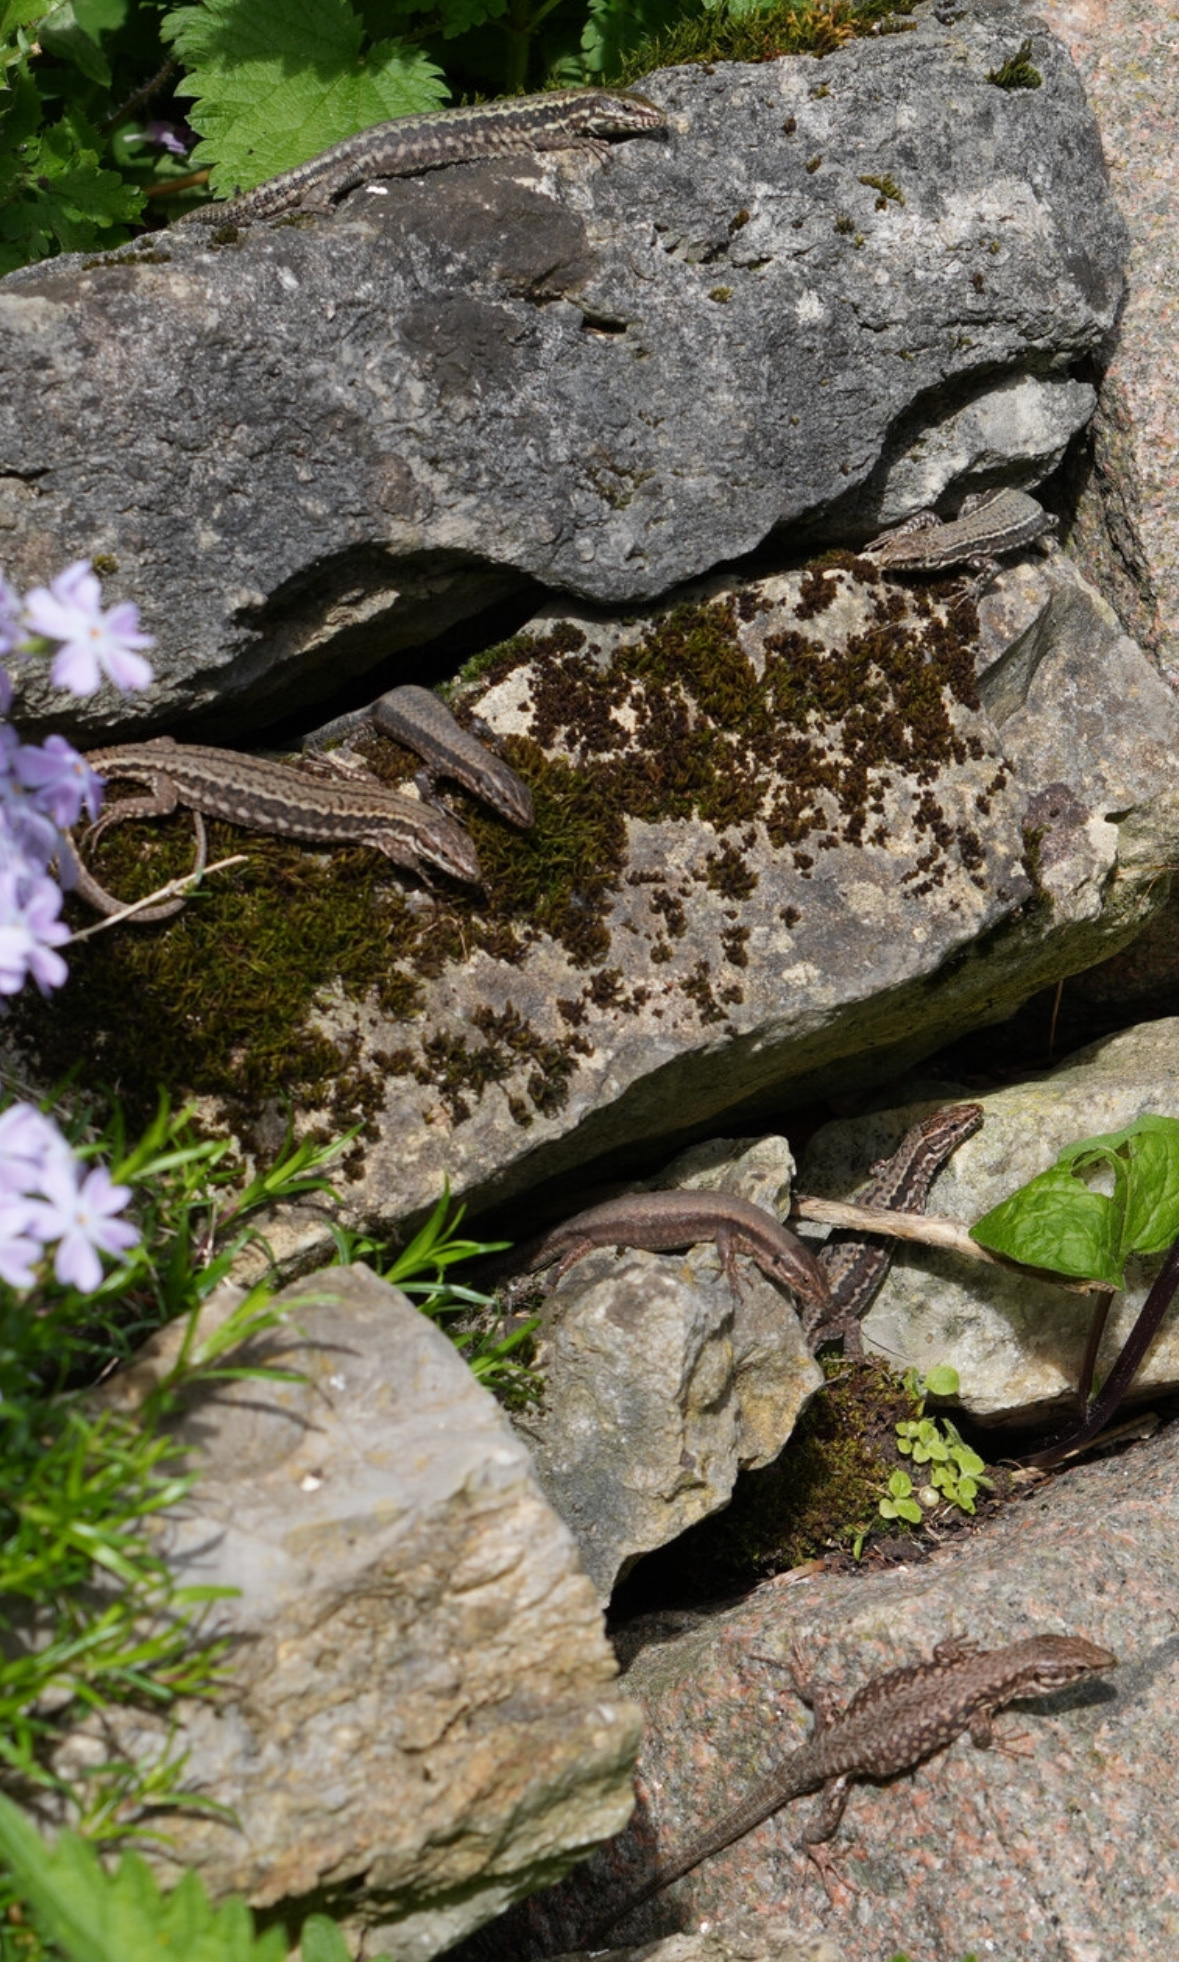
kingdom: Animalia
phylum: Chordata
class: Squamata
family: Lacertidae
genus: Podarcis
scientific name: Podarcis muralis
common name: Common wall lizard
